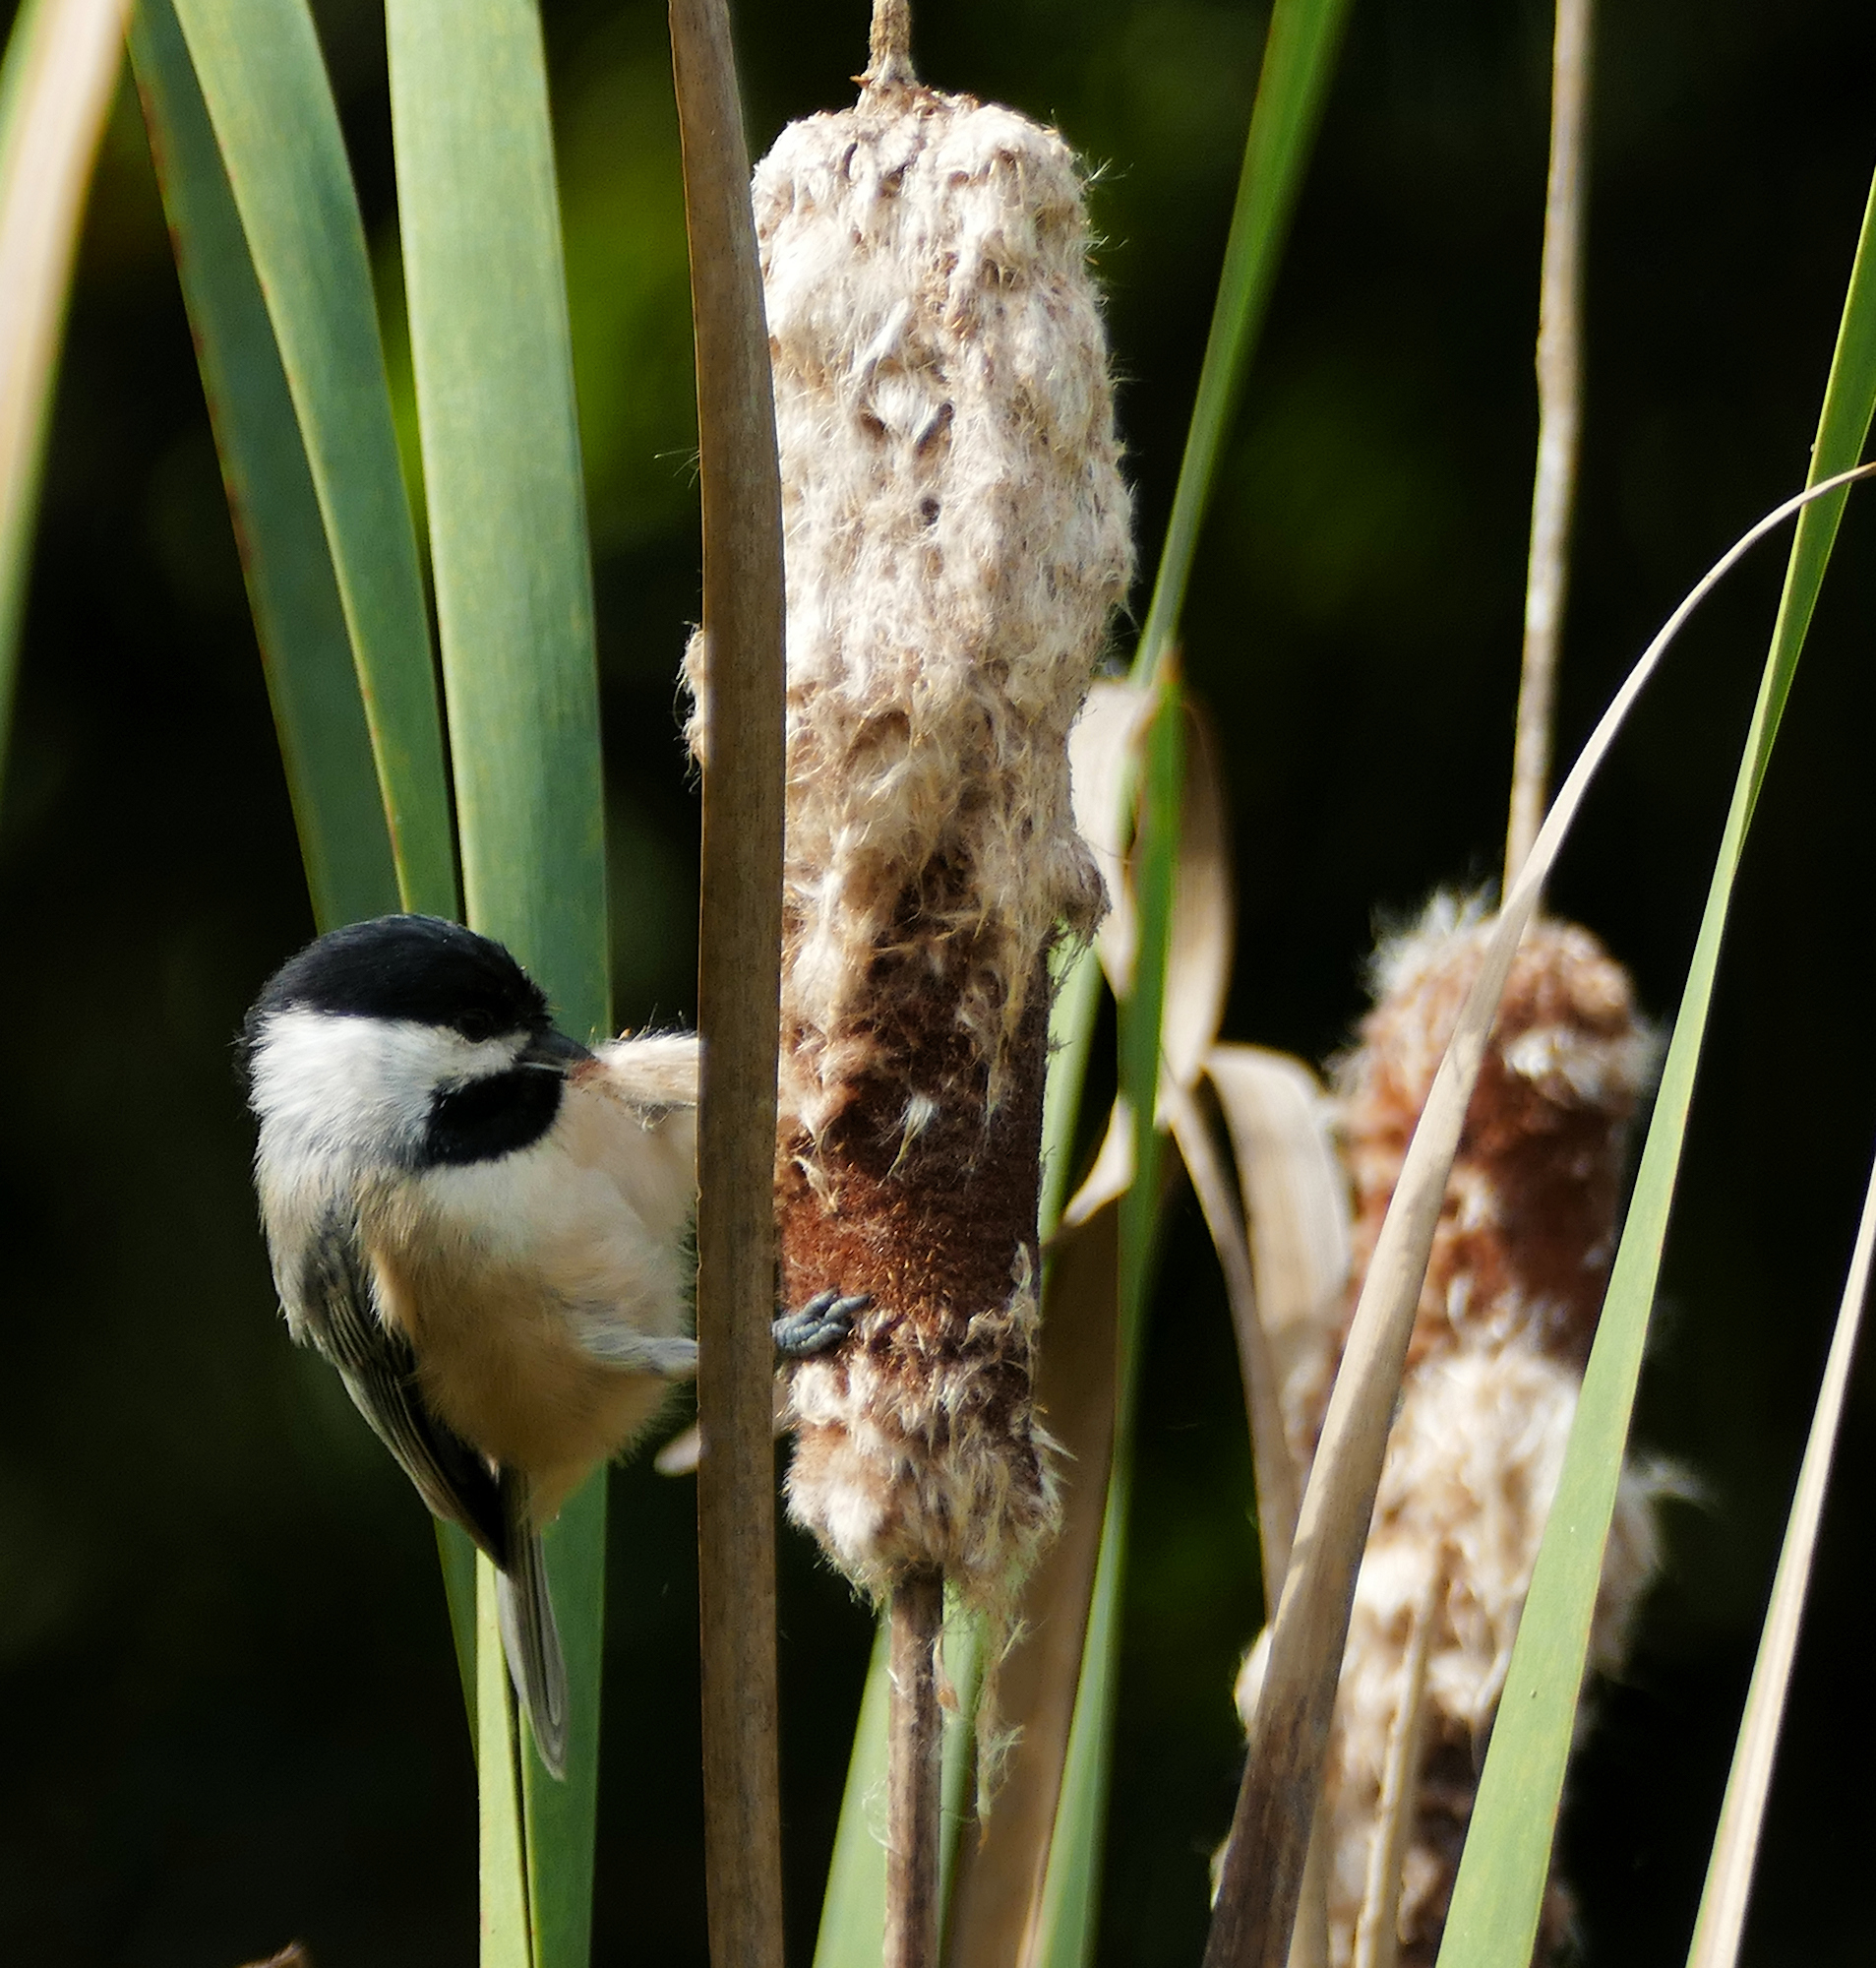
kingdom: Animalia
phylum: Chordata
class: Aves
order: Passeriformes
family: Paridae
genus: Poecile
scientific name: Poecile carolinensis
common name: Carolina chickadee
